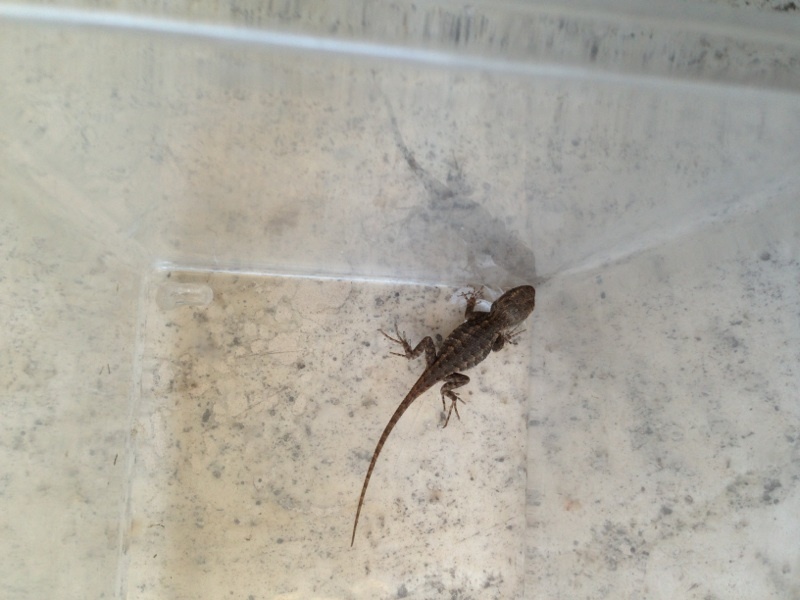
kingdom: Animalia
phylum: Chordata
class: Squamata
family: Phrynosomatidae
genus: Sceloporus
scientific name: Sceloporus occidentalis
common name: Western fence lizard
